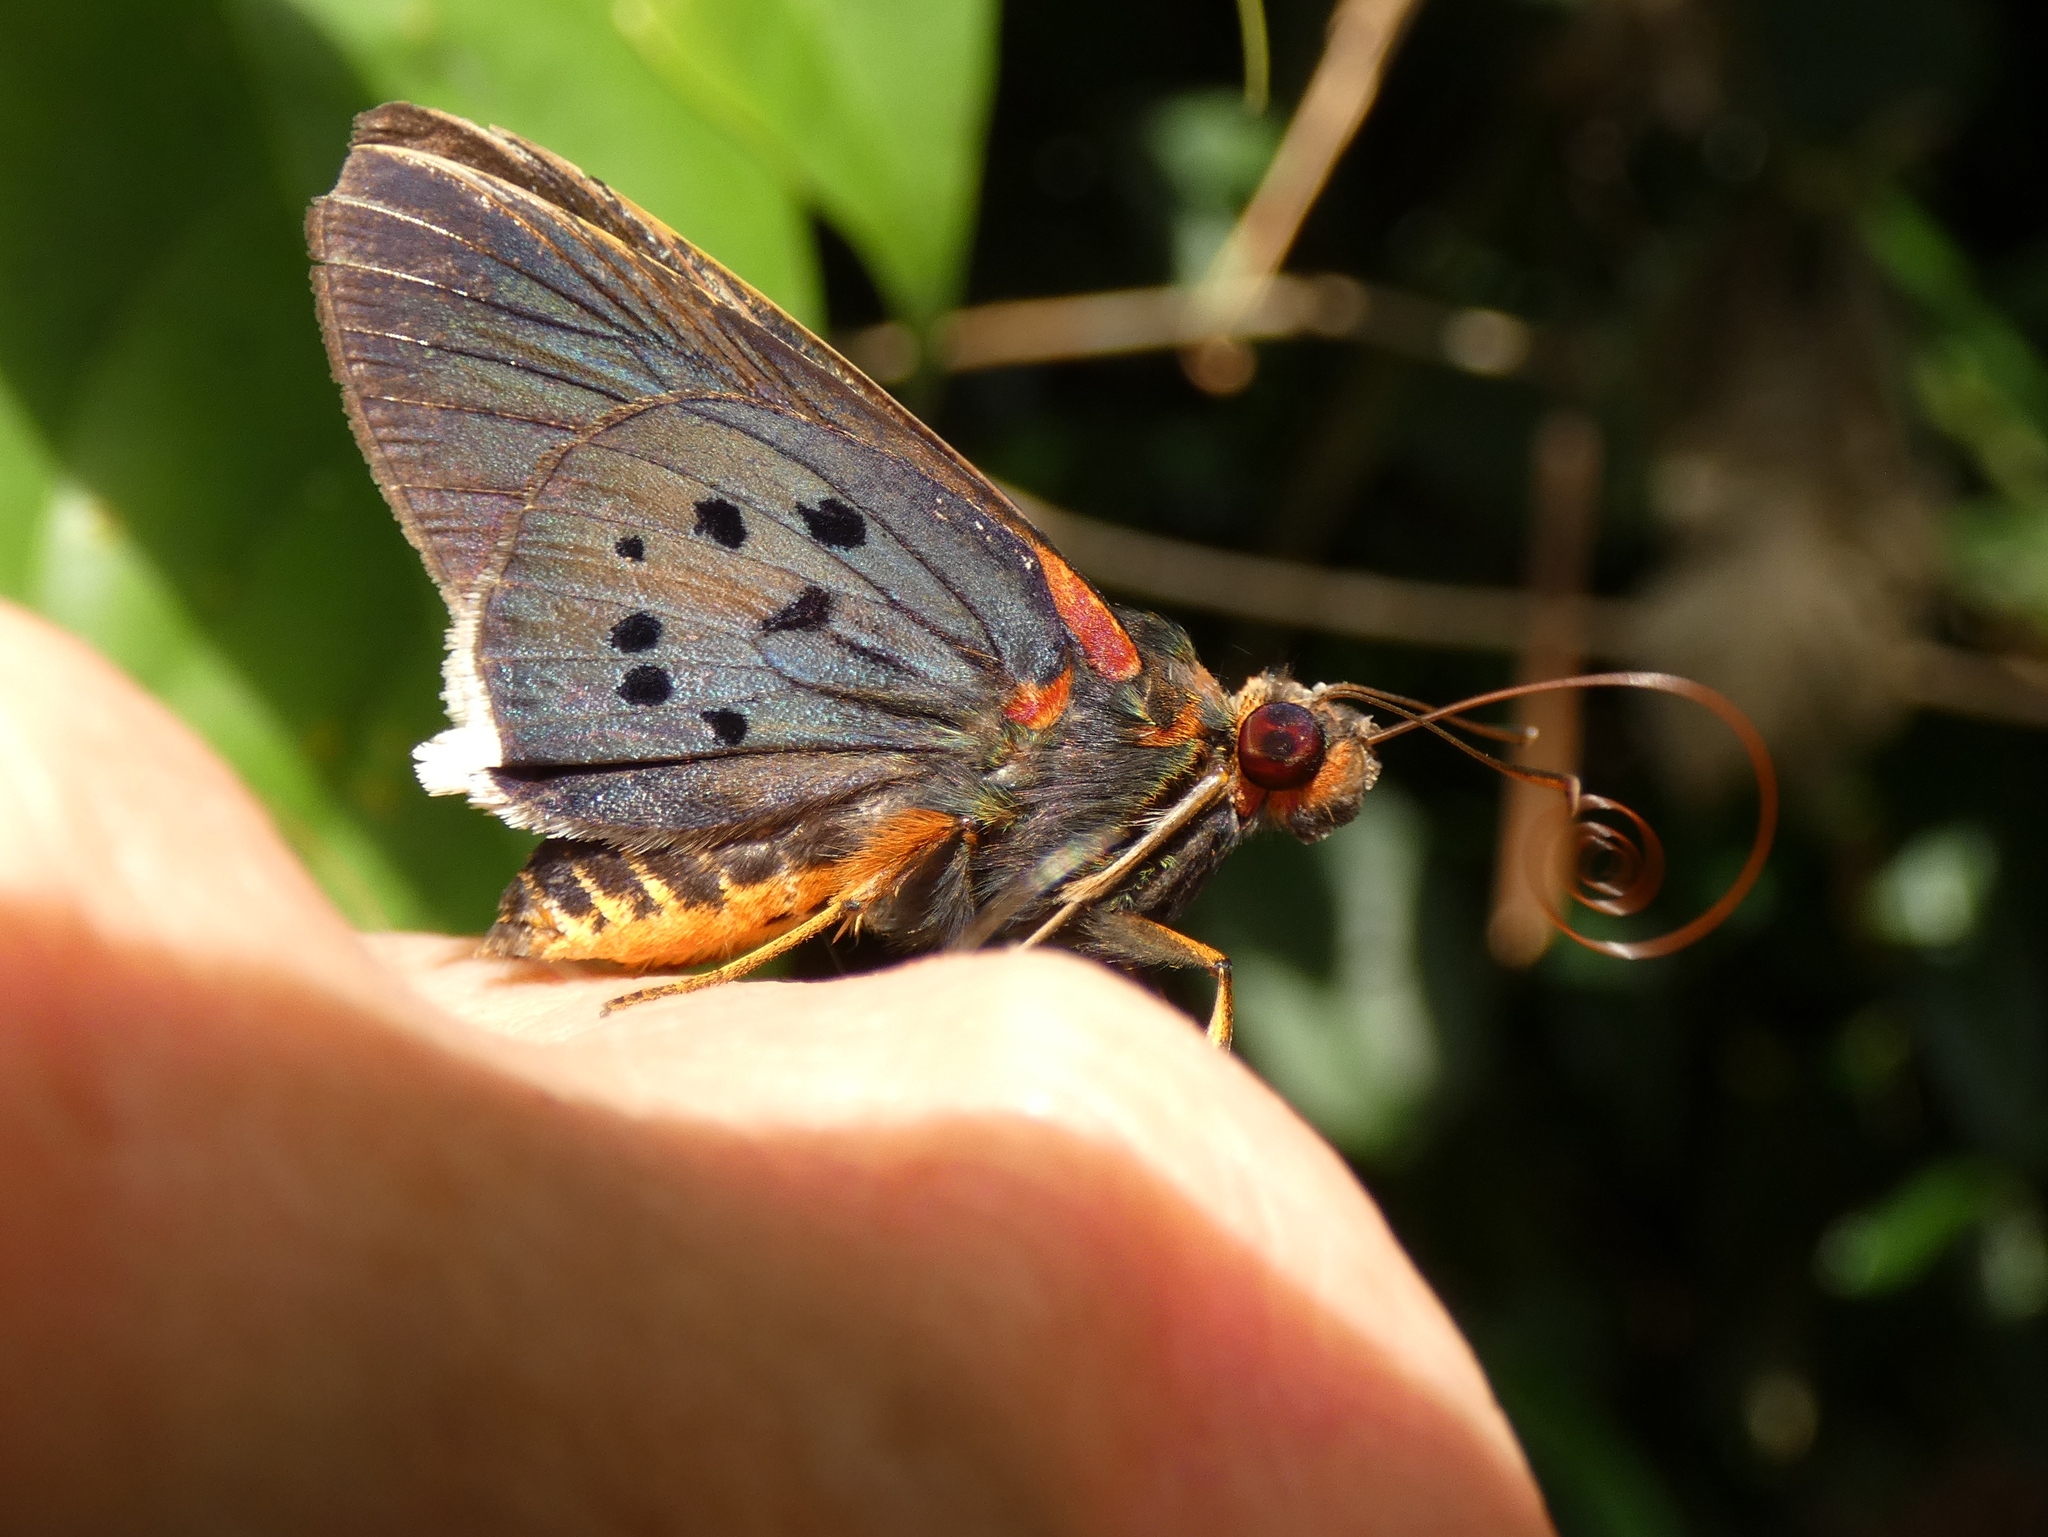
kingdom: Animalia
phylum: Arthropoda
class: Insecta
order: Lepidoptera
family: Hesperiidae
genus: Pteroteinon
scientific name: Pteroteinon iricolor
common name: Green-winged red-eye
